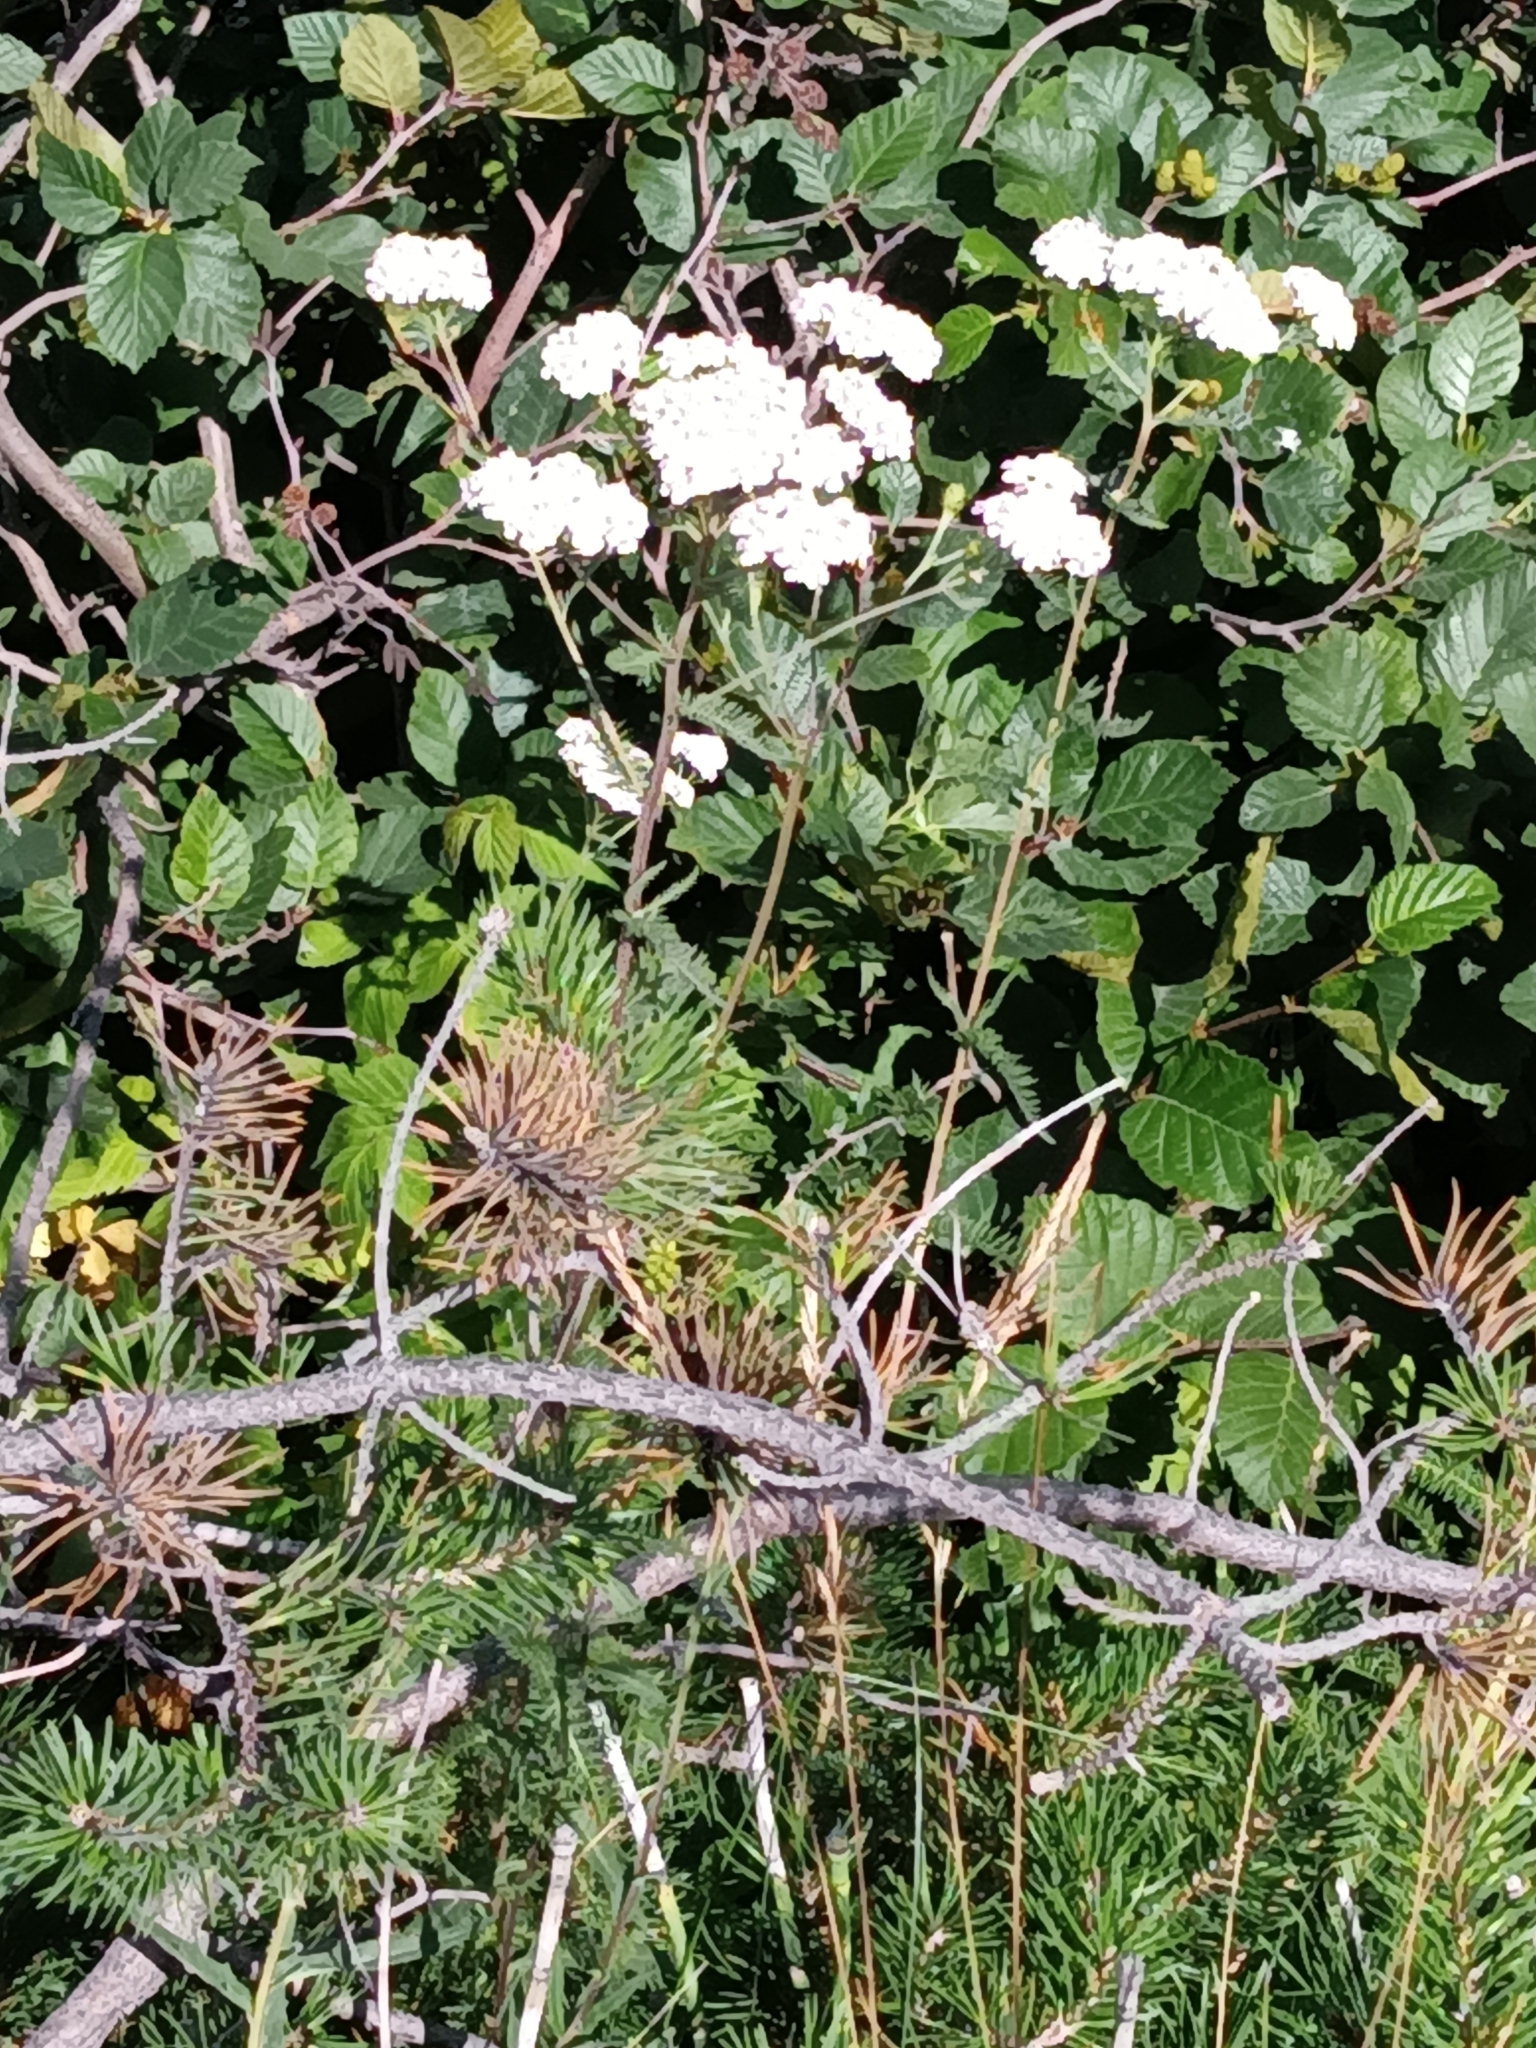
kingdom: Plantae
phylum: Tracheophyta
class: Magnoliopsida
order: Asterales
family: Asteraceae
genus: Achillea
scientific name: Achillea millefolium
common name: Yarrow
